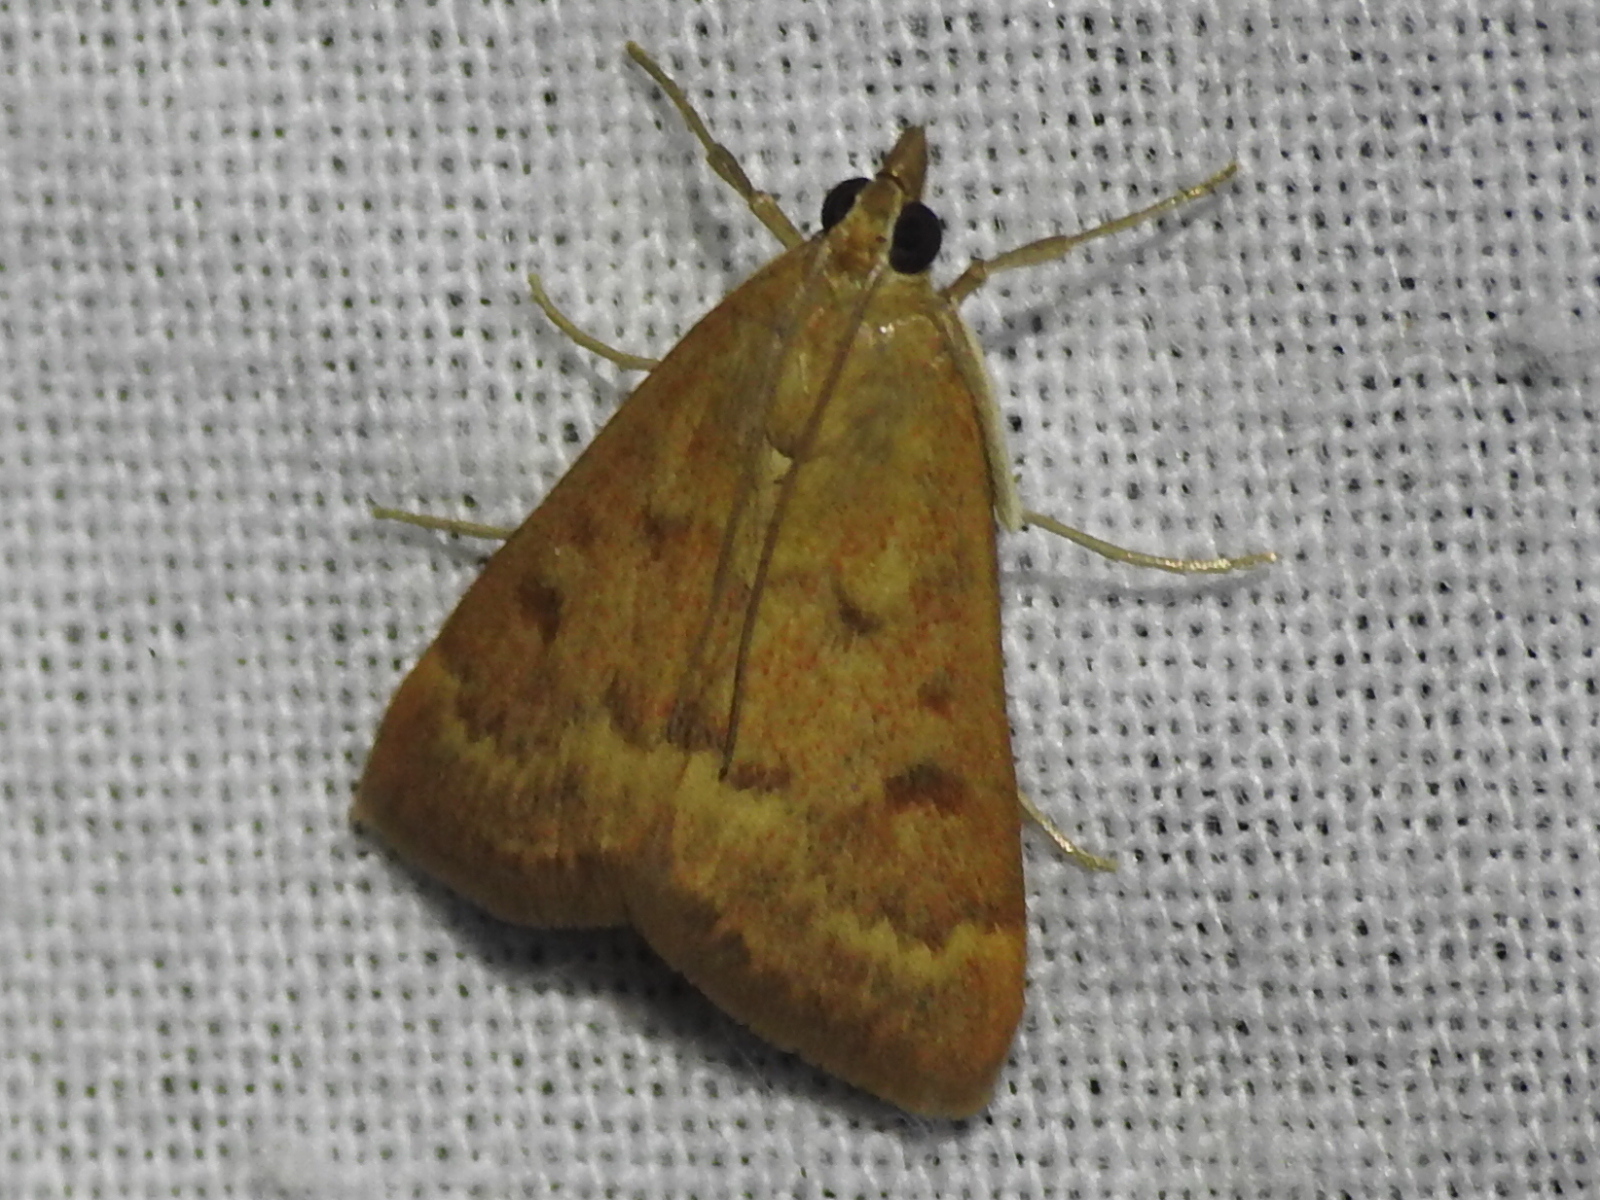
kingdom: Animalia
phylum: Arthropoda
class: Insecta
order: Lepidoptera
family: Crambidae
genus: Achyra
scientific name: Achyra rantalis
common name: Garden webworm
